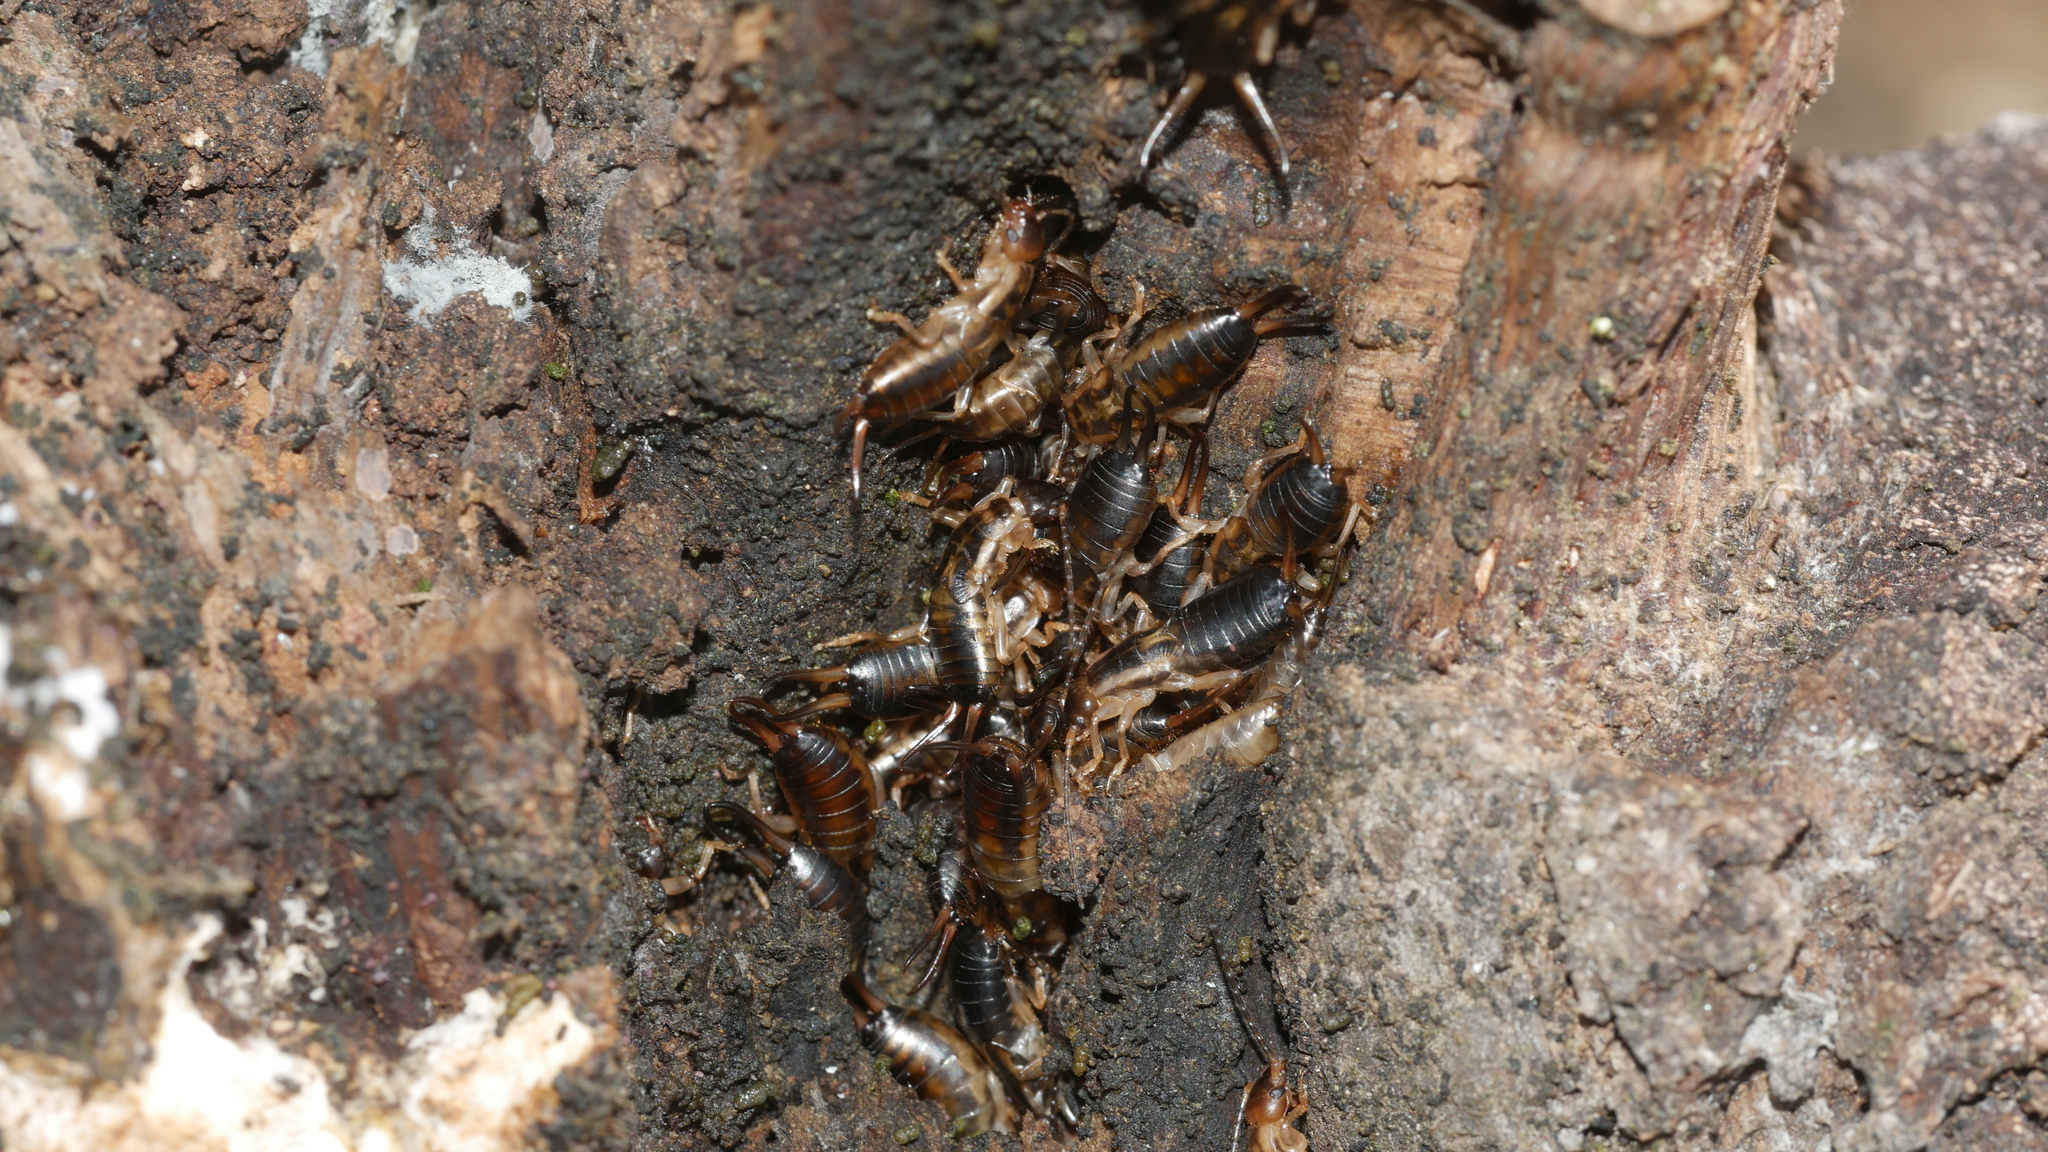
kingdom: Animalia
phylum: Arthropoda
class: Insecta
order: Dermaptera
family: Forficulidae
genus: Forficula
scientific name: Forficula dentata
